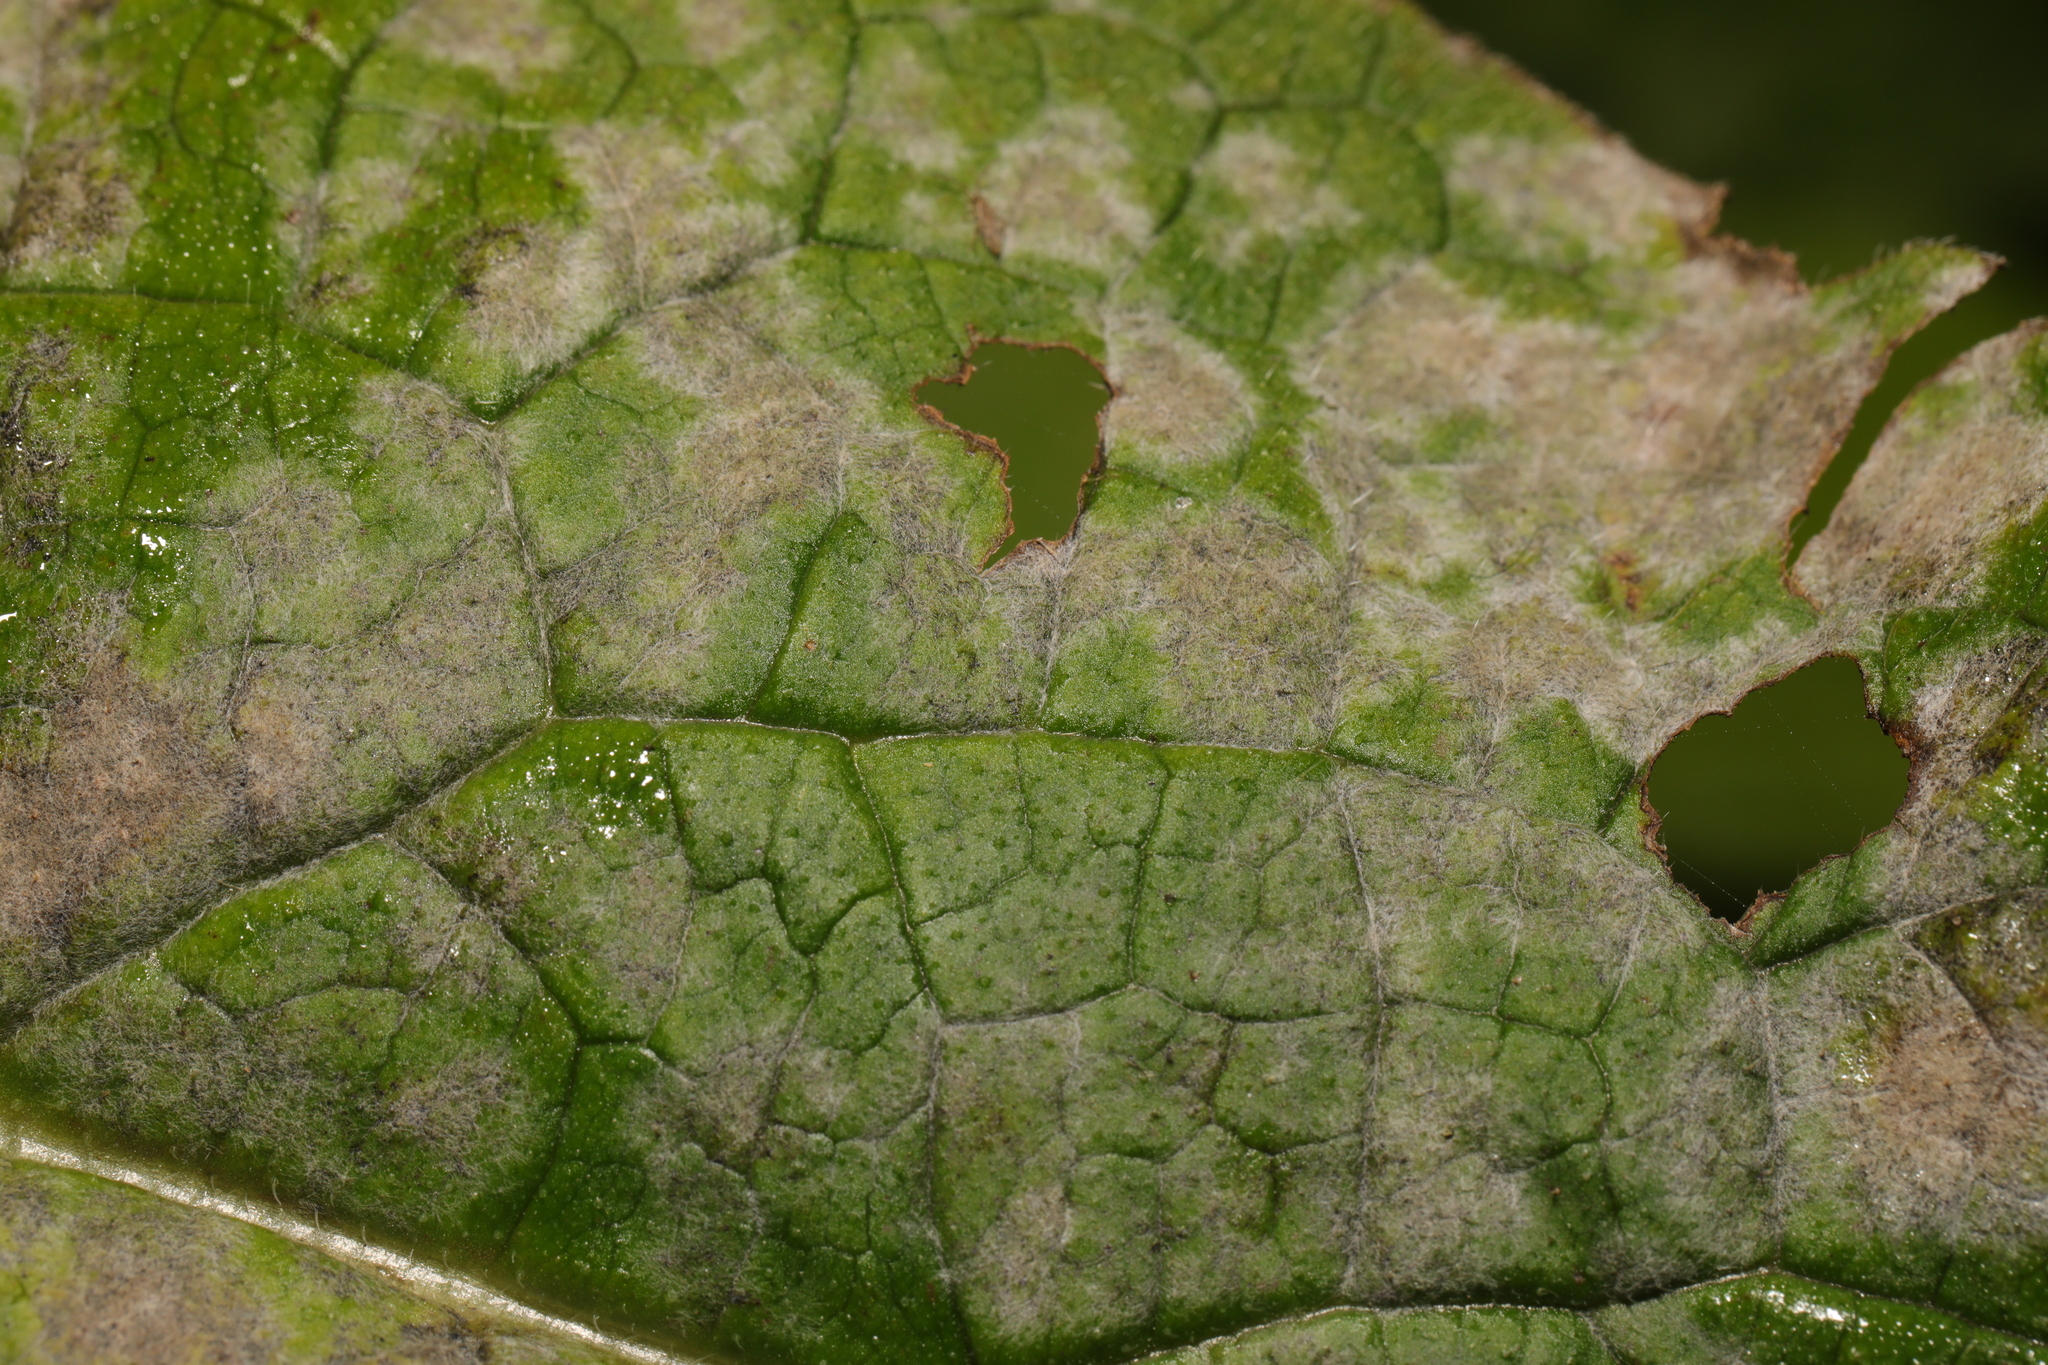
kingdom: Fungi
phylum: Ascomycota
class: Leotiomycetes
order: Helotiales
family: Erysiphaceae
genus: Golovinomyces
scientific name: Golovinomyces asperifoliorum
